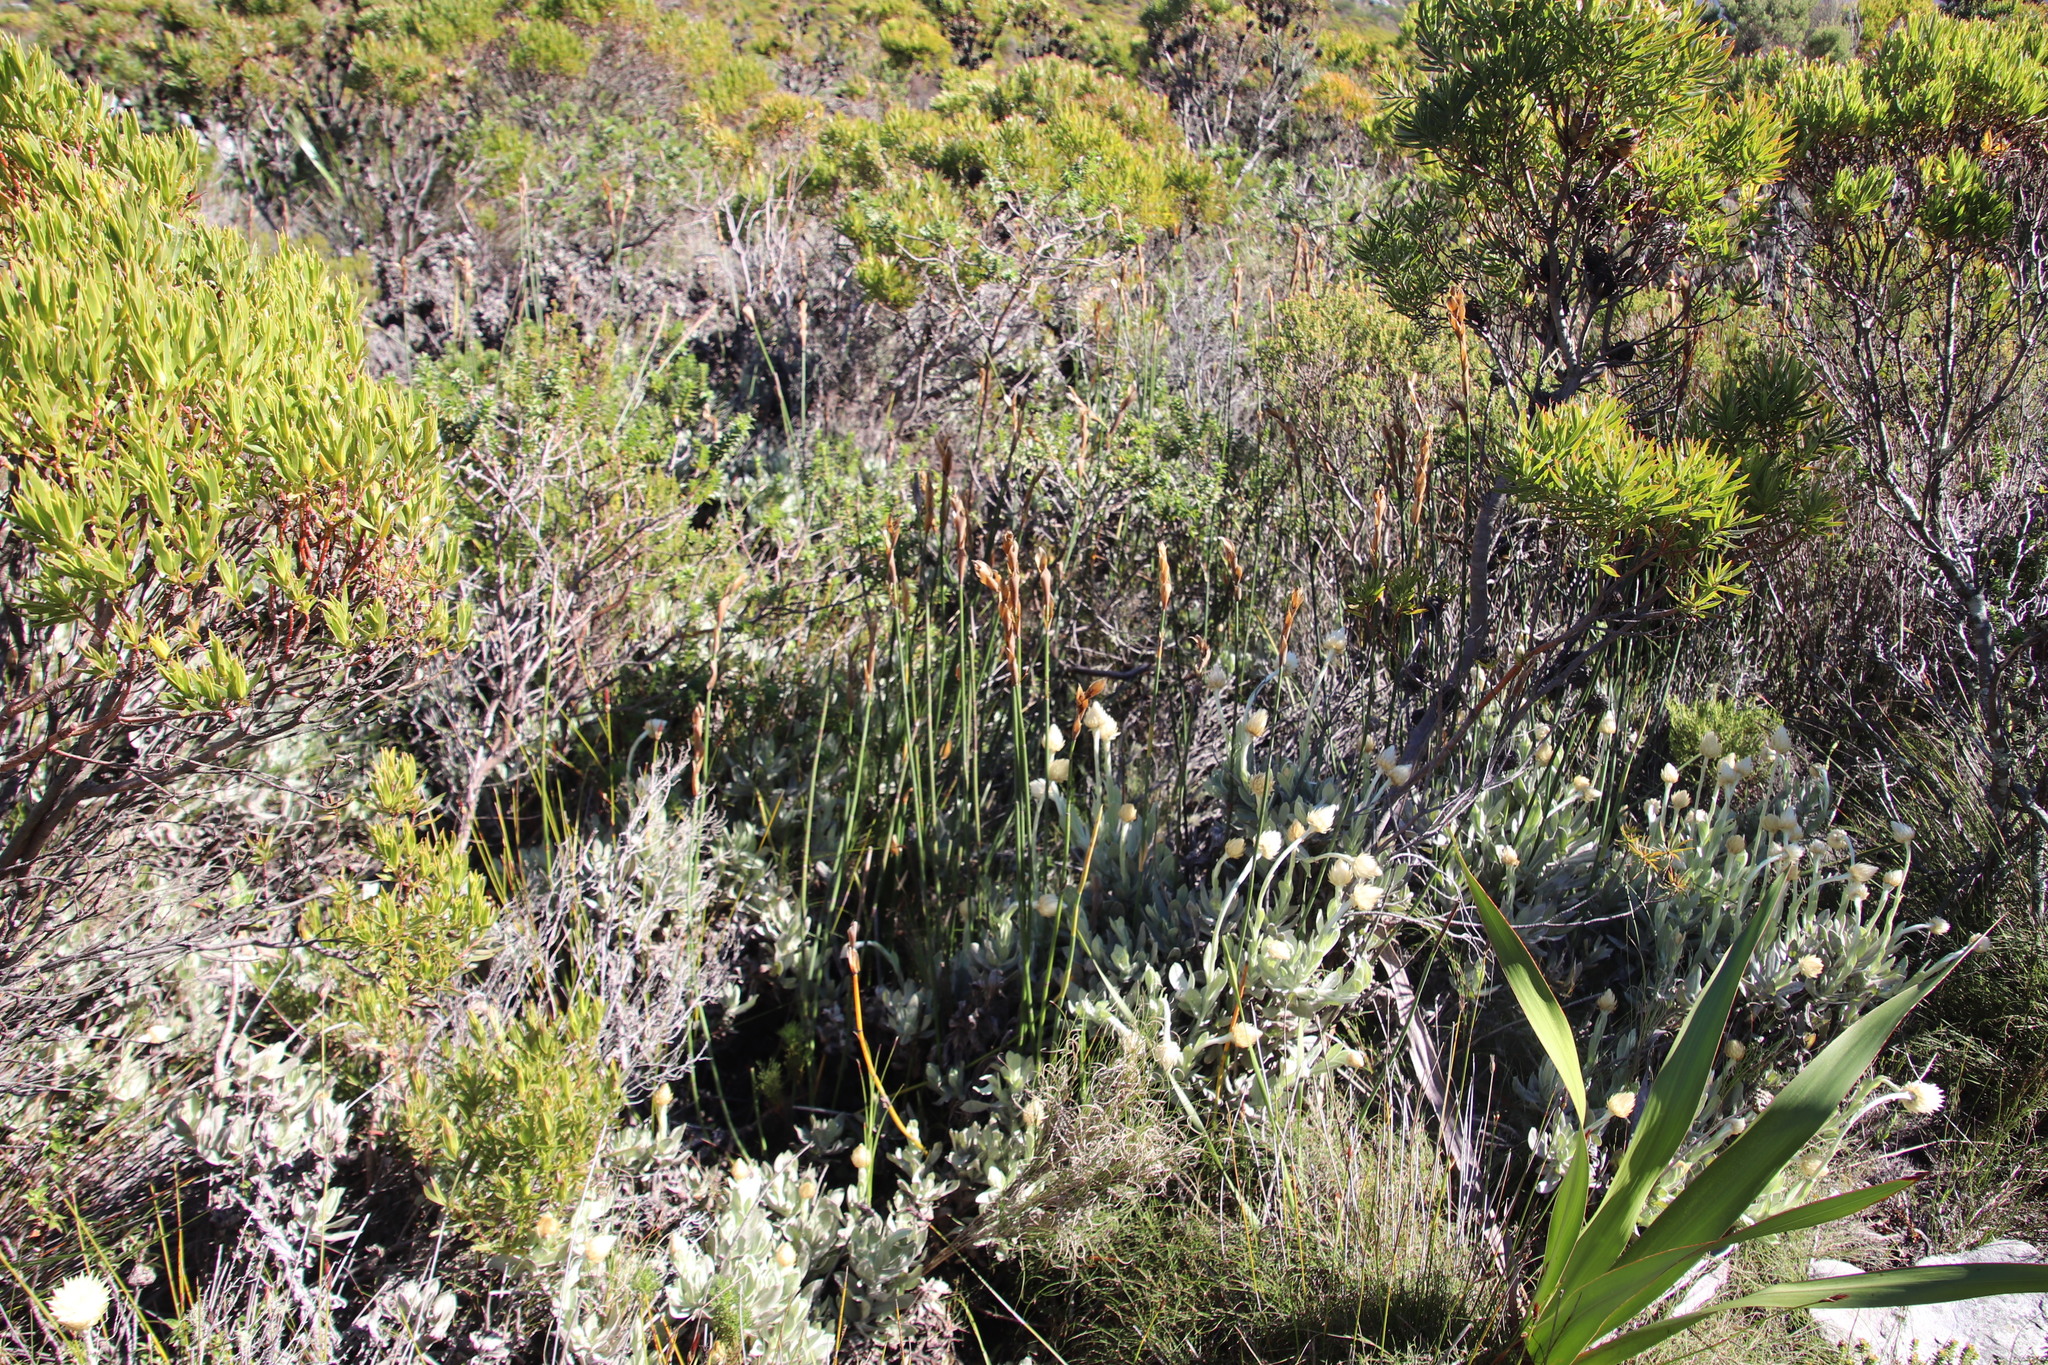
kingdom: Plantae
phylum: Tracheophyta
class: Liliopsida
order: Poales
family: Restionaceae
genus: Elegia
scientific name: Elegia mucronata
